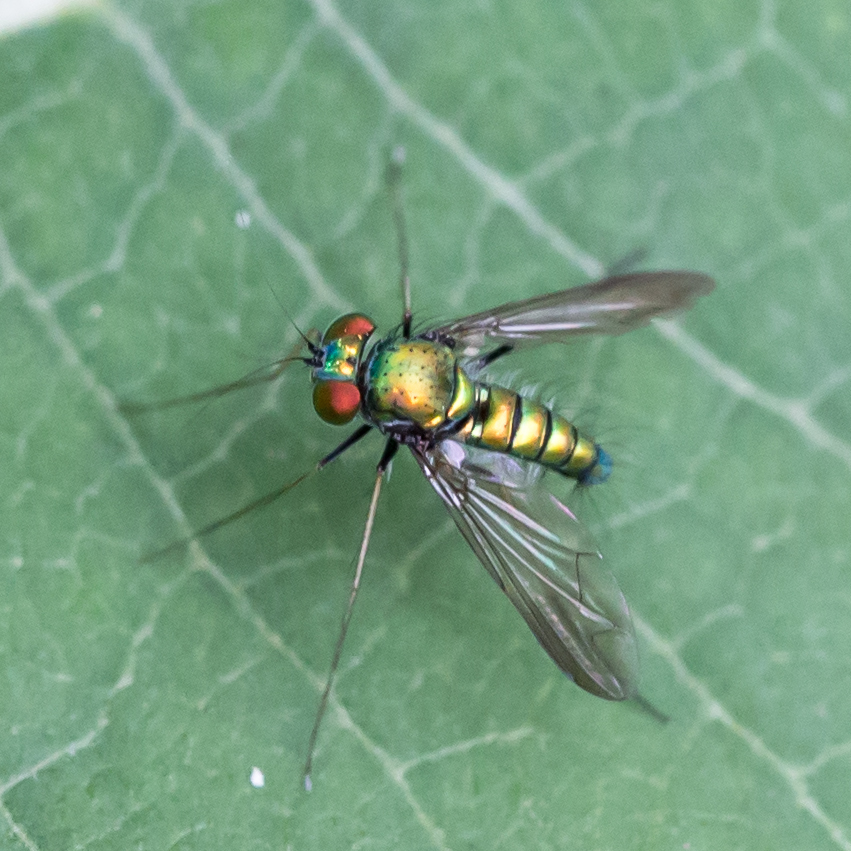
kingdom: Animalia
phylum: Arthropoda
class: Insecta
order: Diptera
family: Dolichopodidae
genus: Condylostylus
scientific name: Condylostylus comatus
